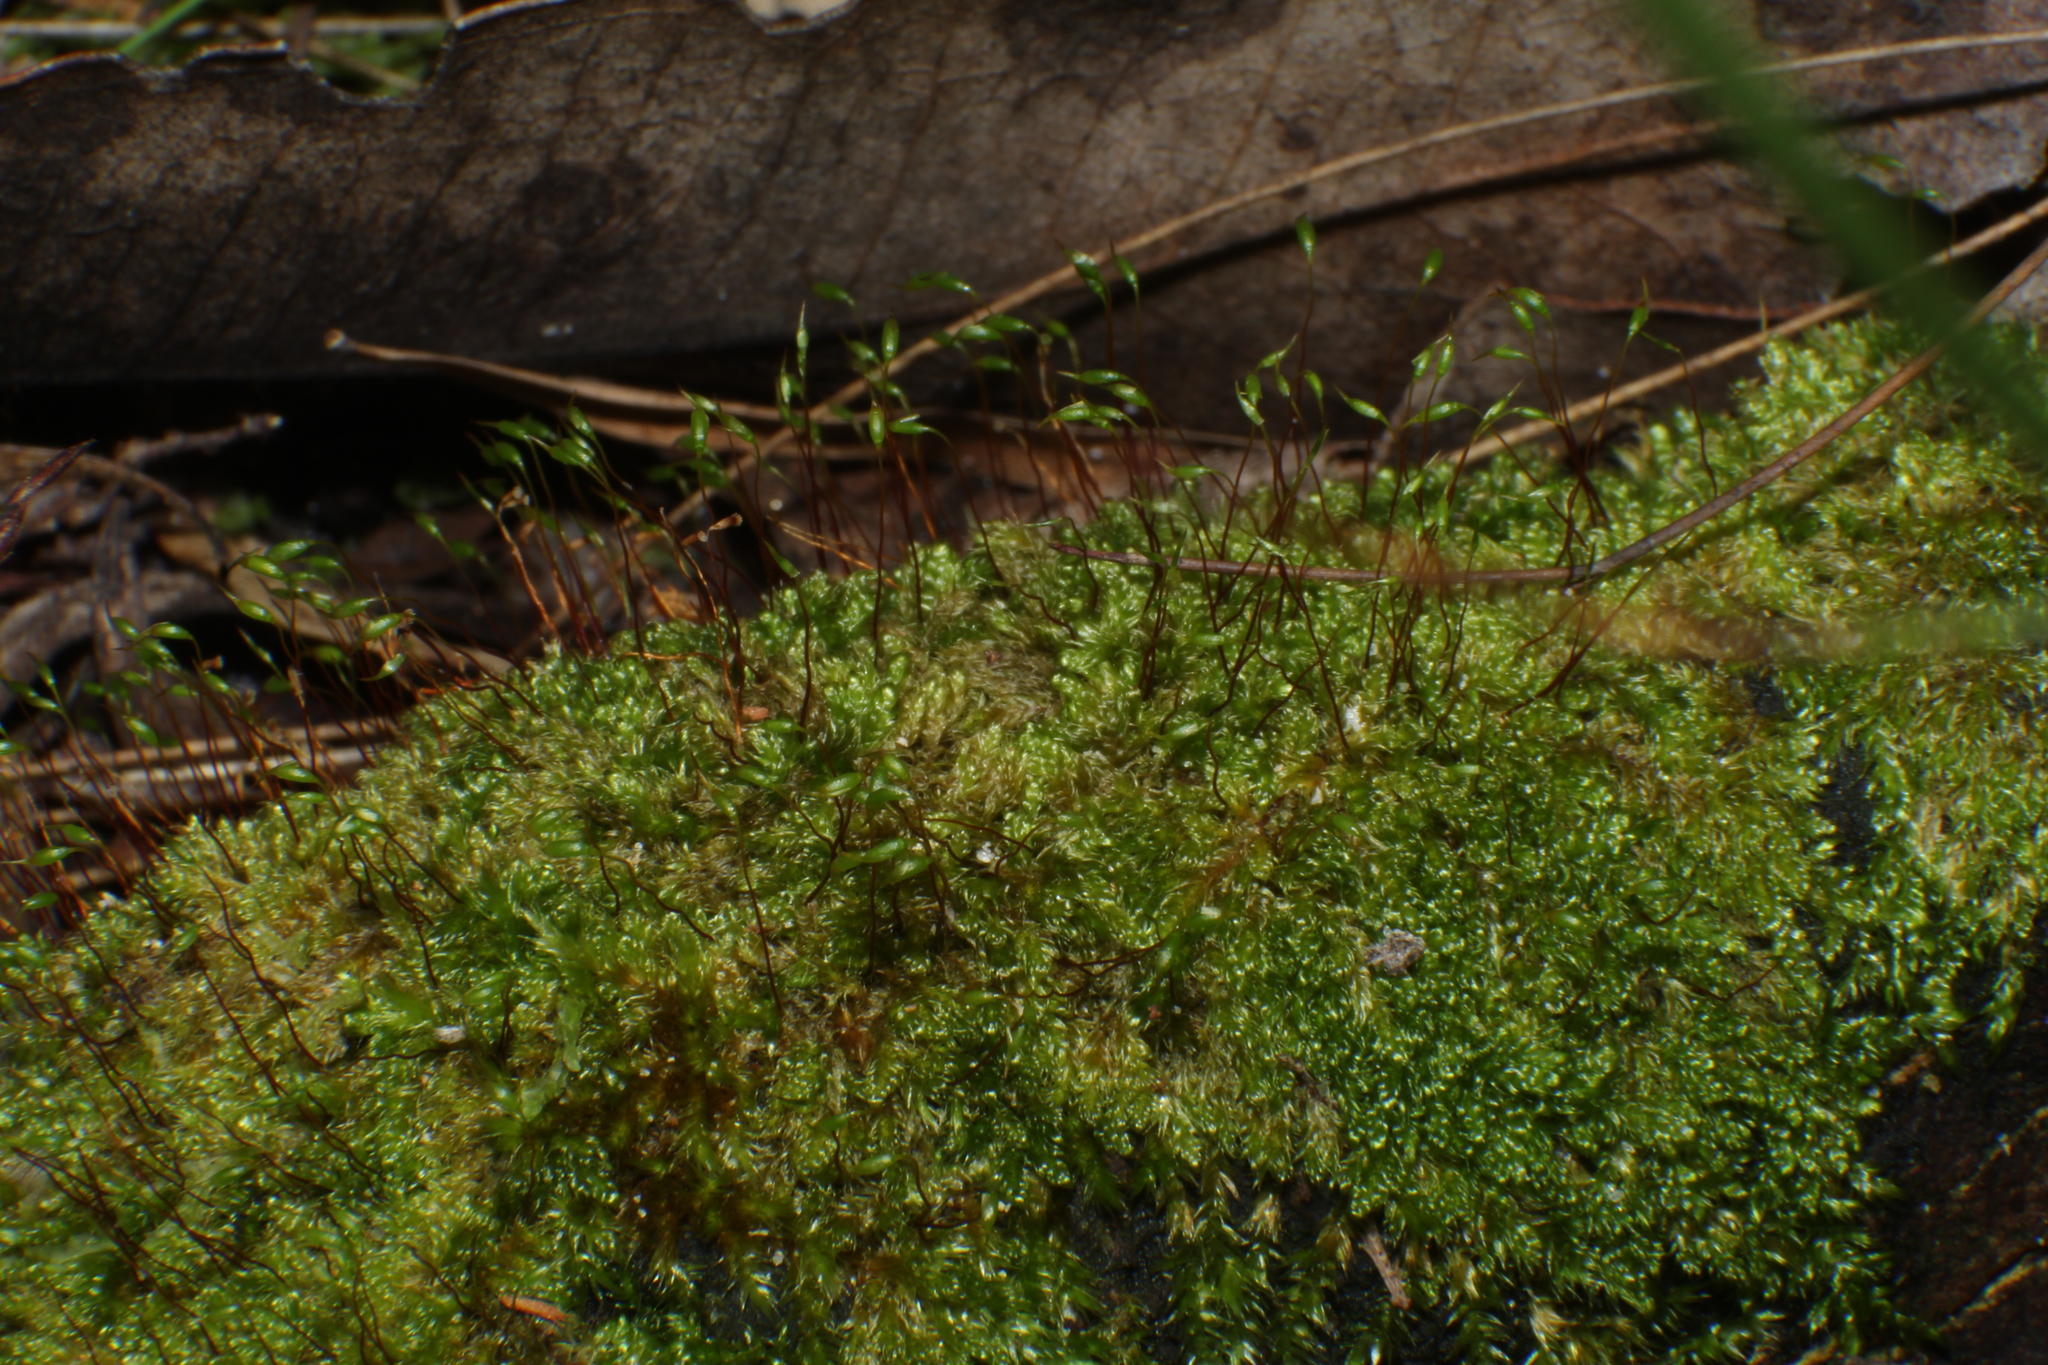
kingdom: Plantae
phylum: Bryophyta
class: Bryopsida
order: Hypnales
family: Hypnaceae
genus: Hypnum
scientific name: Hypnum cupressiforme
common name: Cypress-leaved plait-moss
